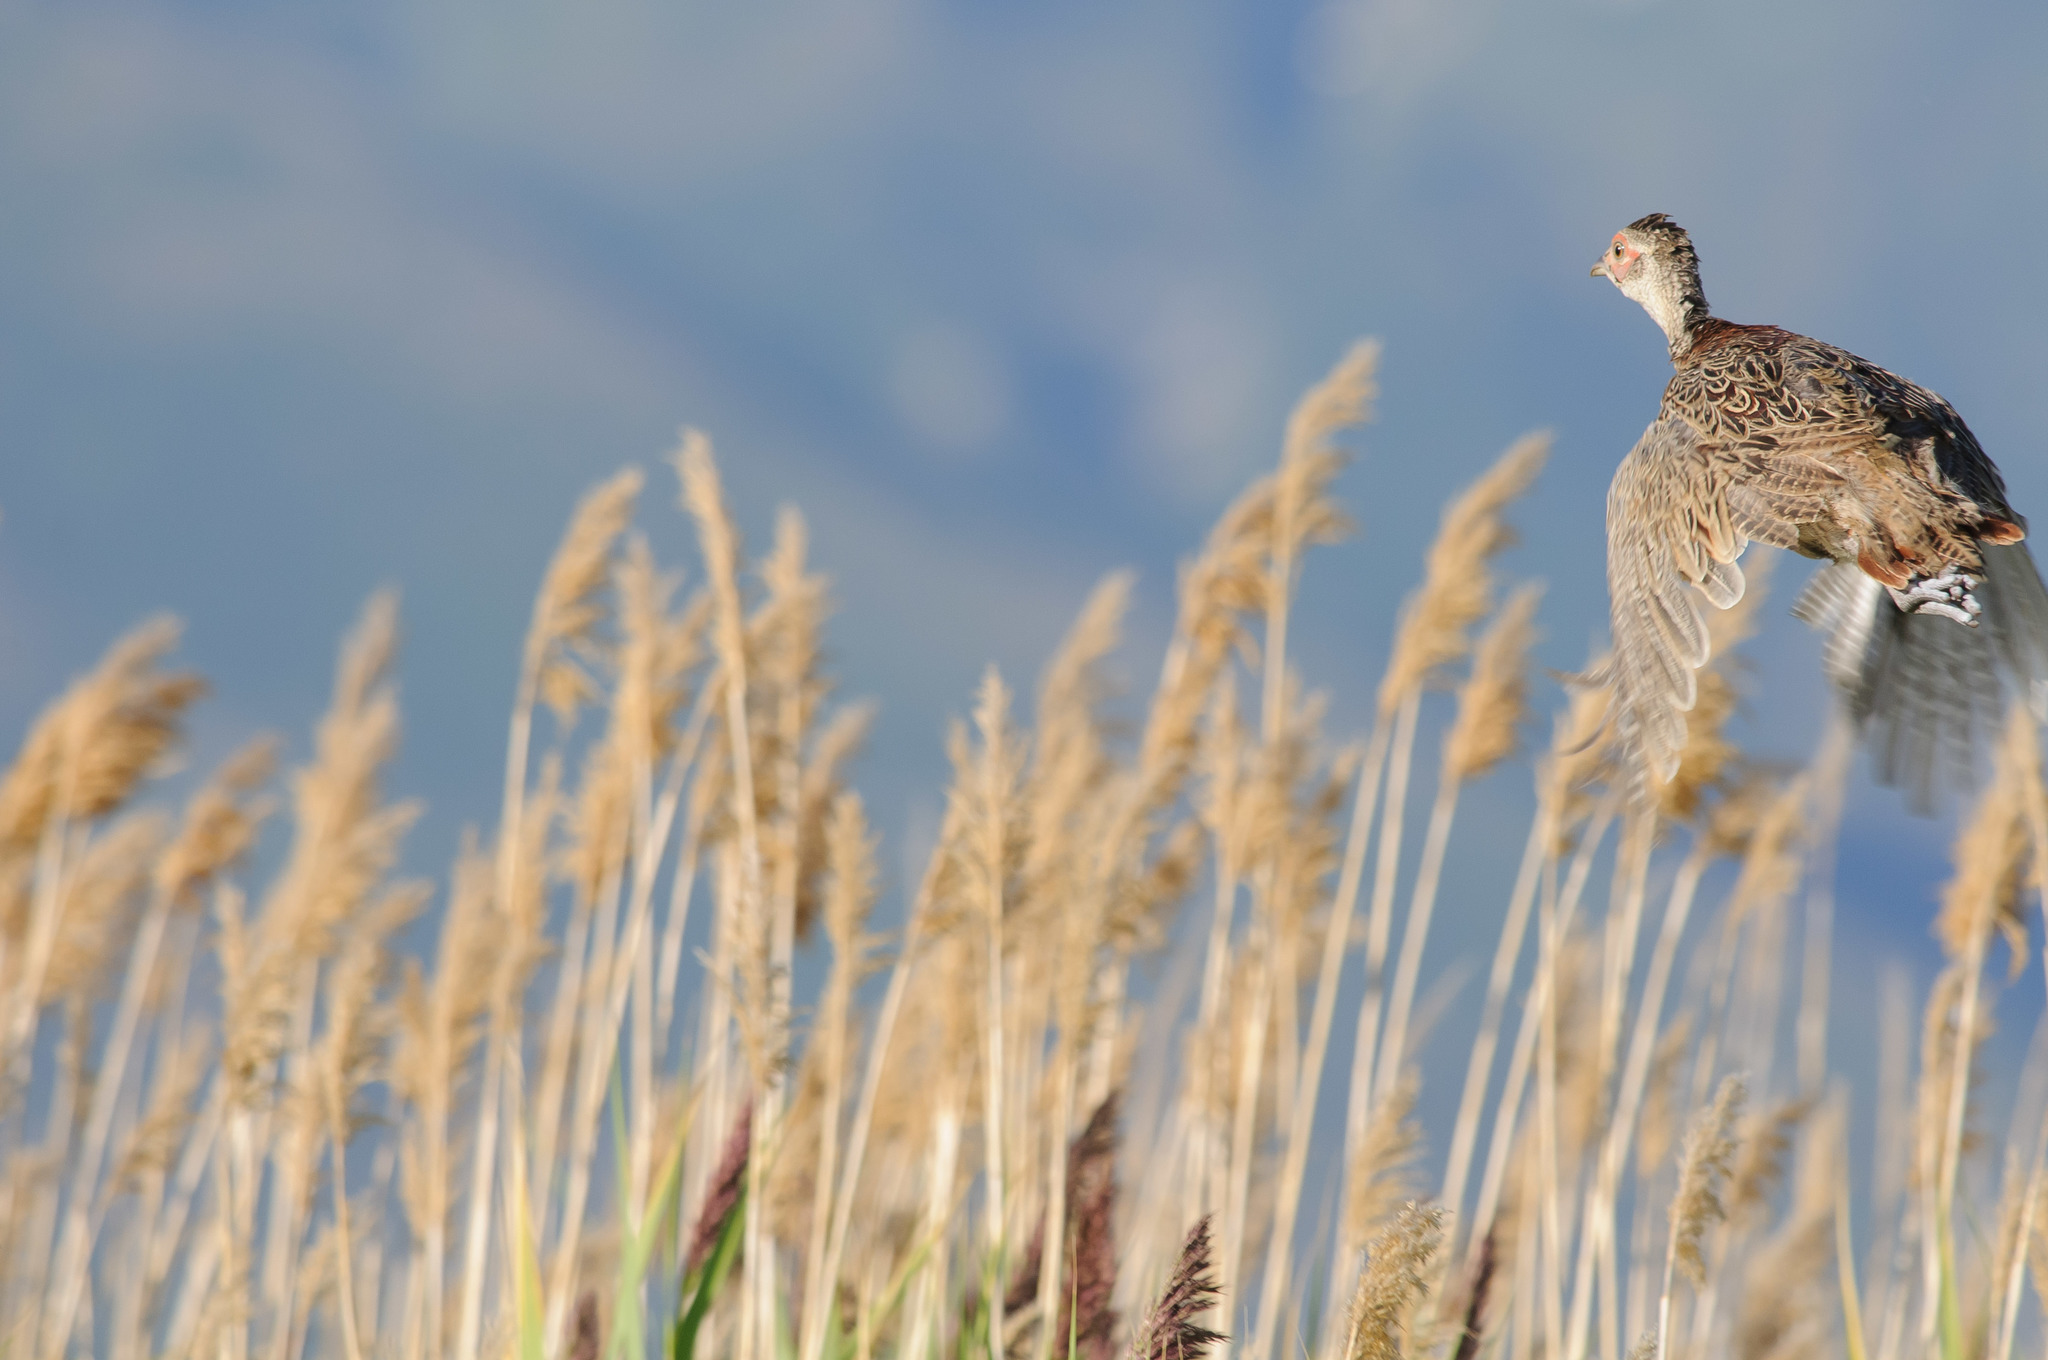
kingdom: Animalia
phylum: Chordata
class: Aves
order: Galliformes
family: Phasianidae
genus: Phasianus
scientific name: Phasianus colchicus
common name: Common pheasant
